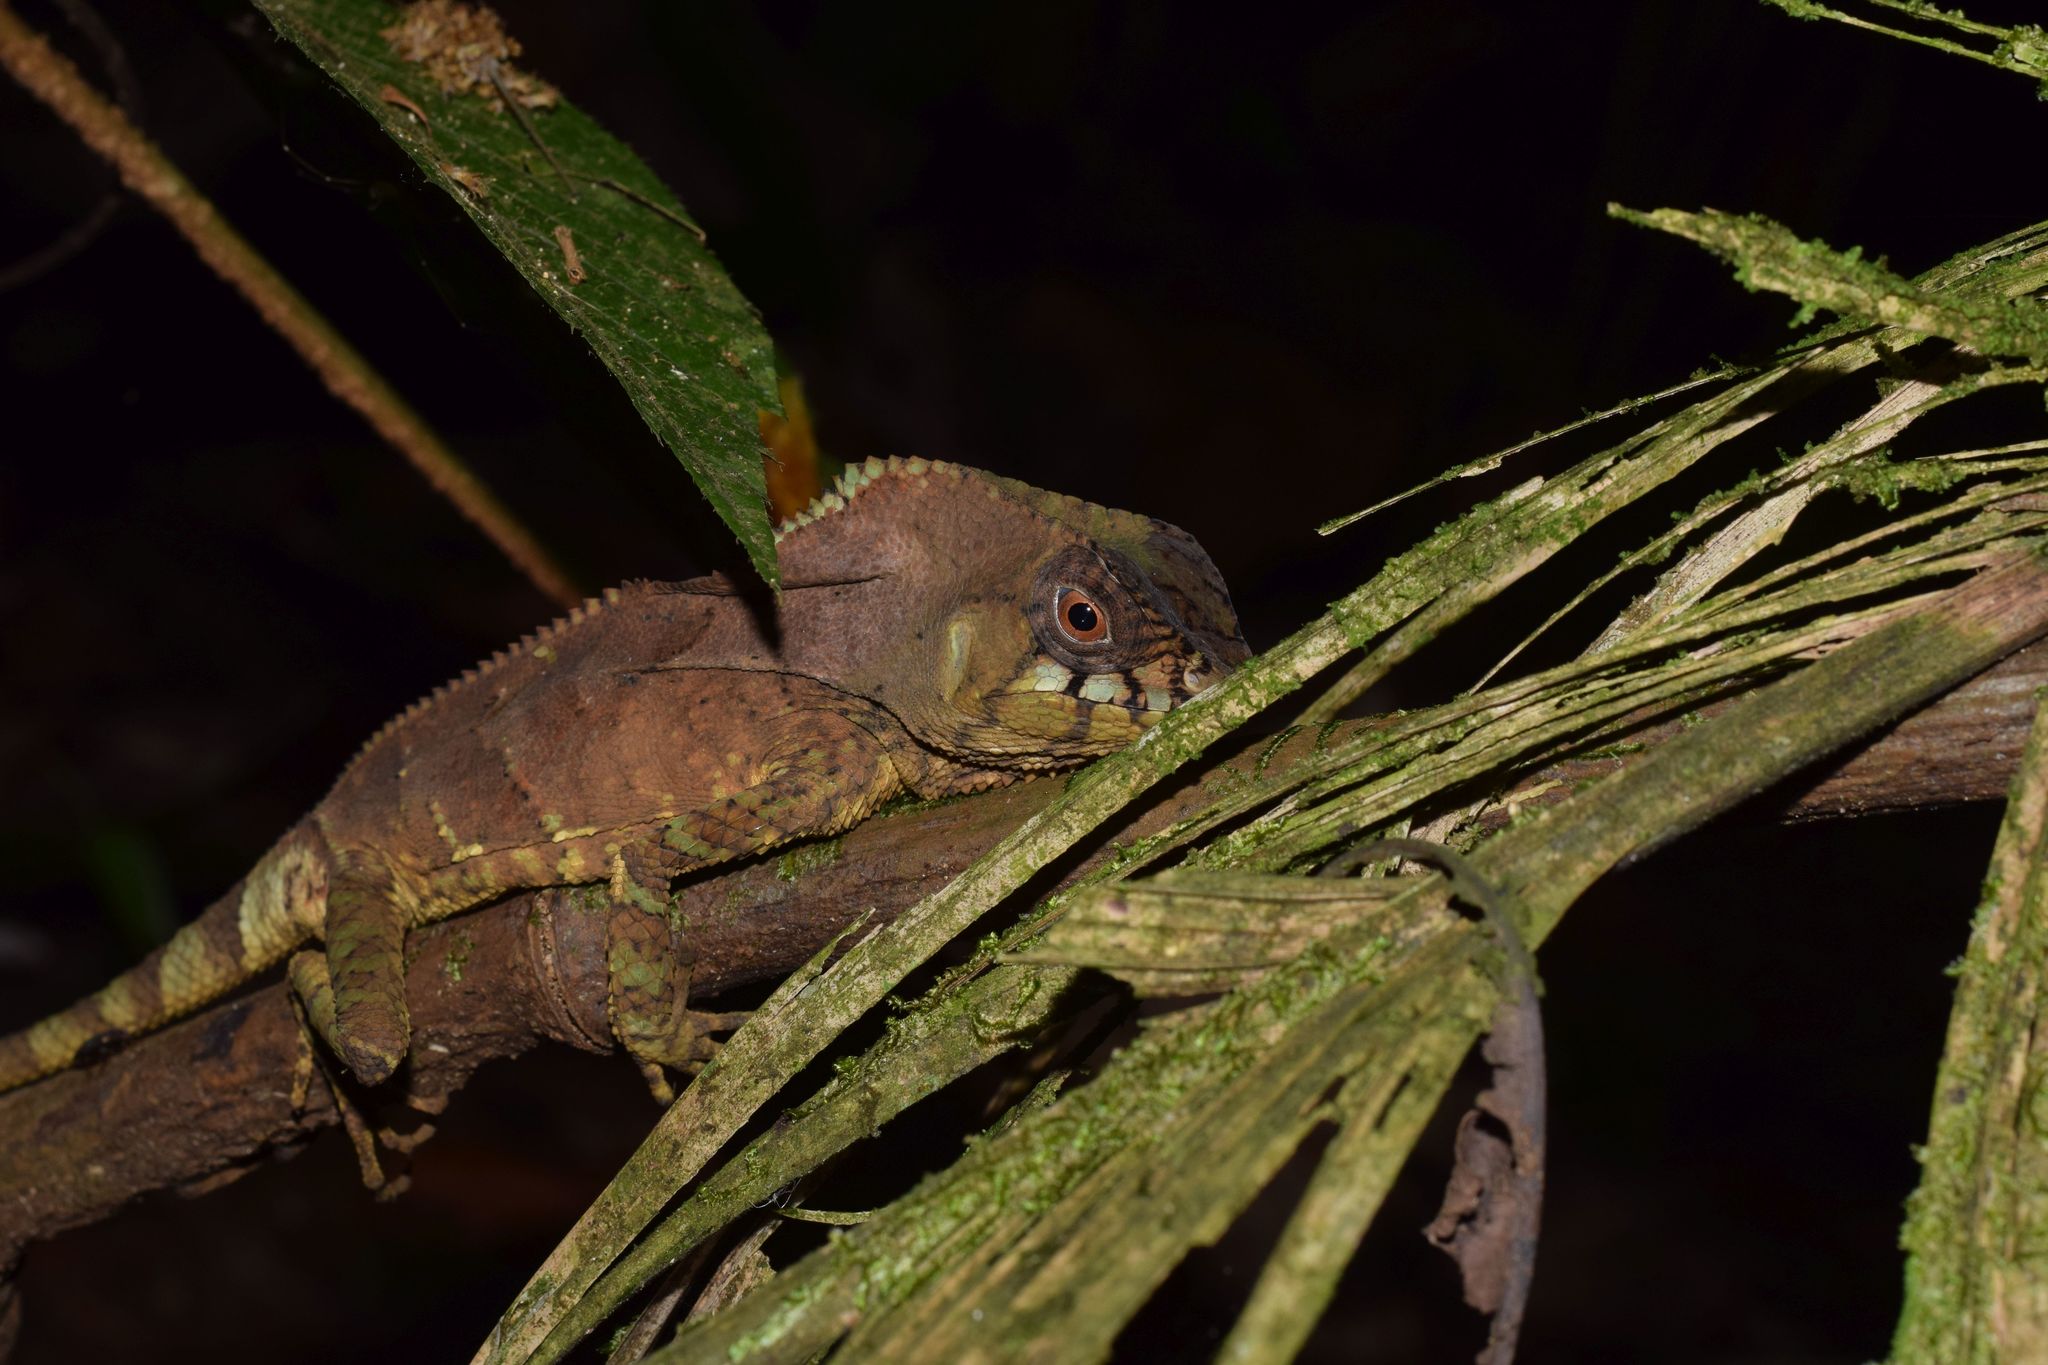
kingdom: Animalia
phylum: Chordata
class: Squamata
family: Corytophanidae
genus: Corytophanes
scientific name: Corytophanes cristatus
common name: Smooth helmeted iguana
